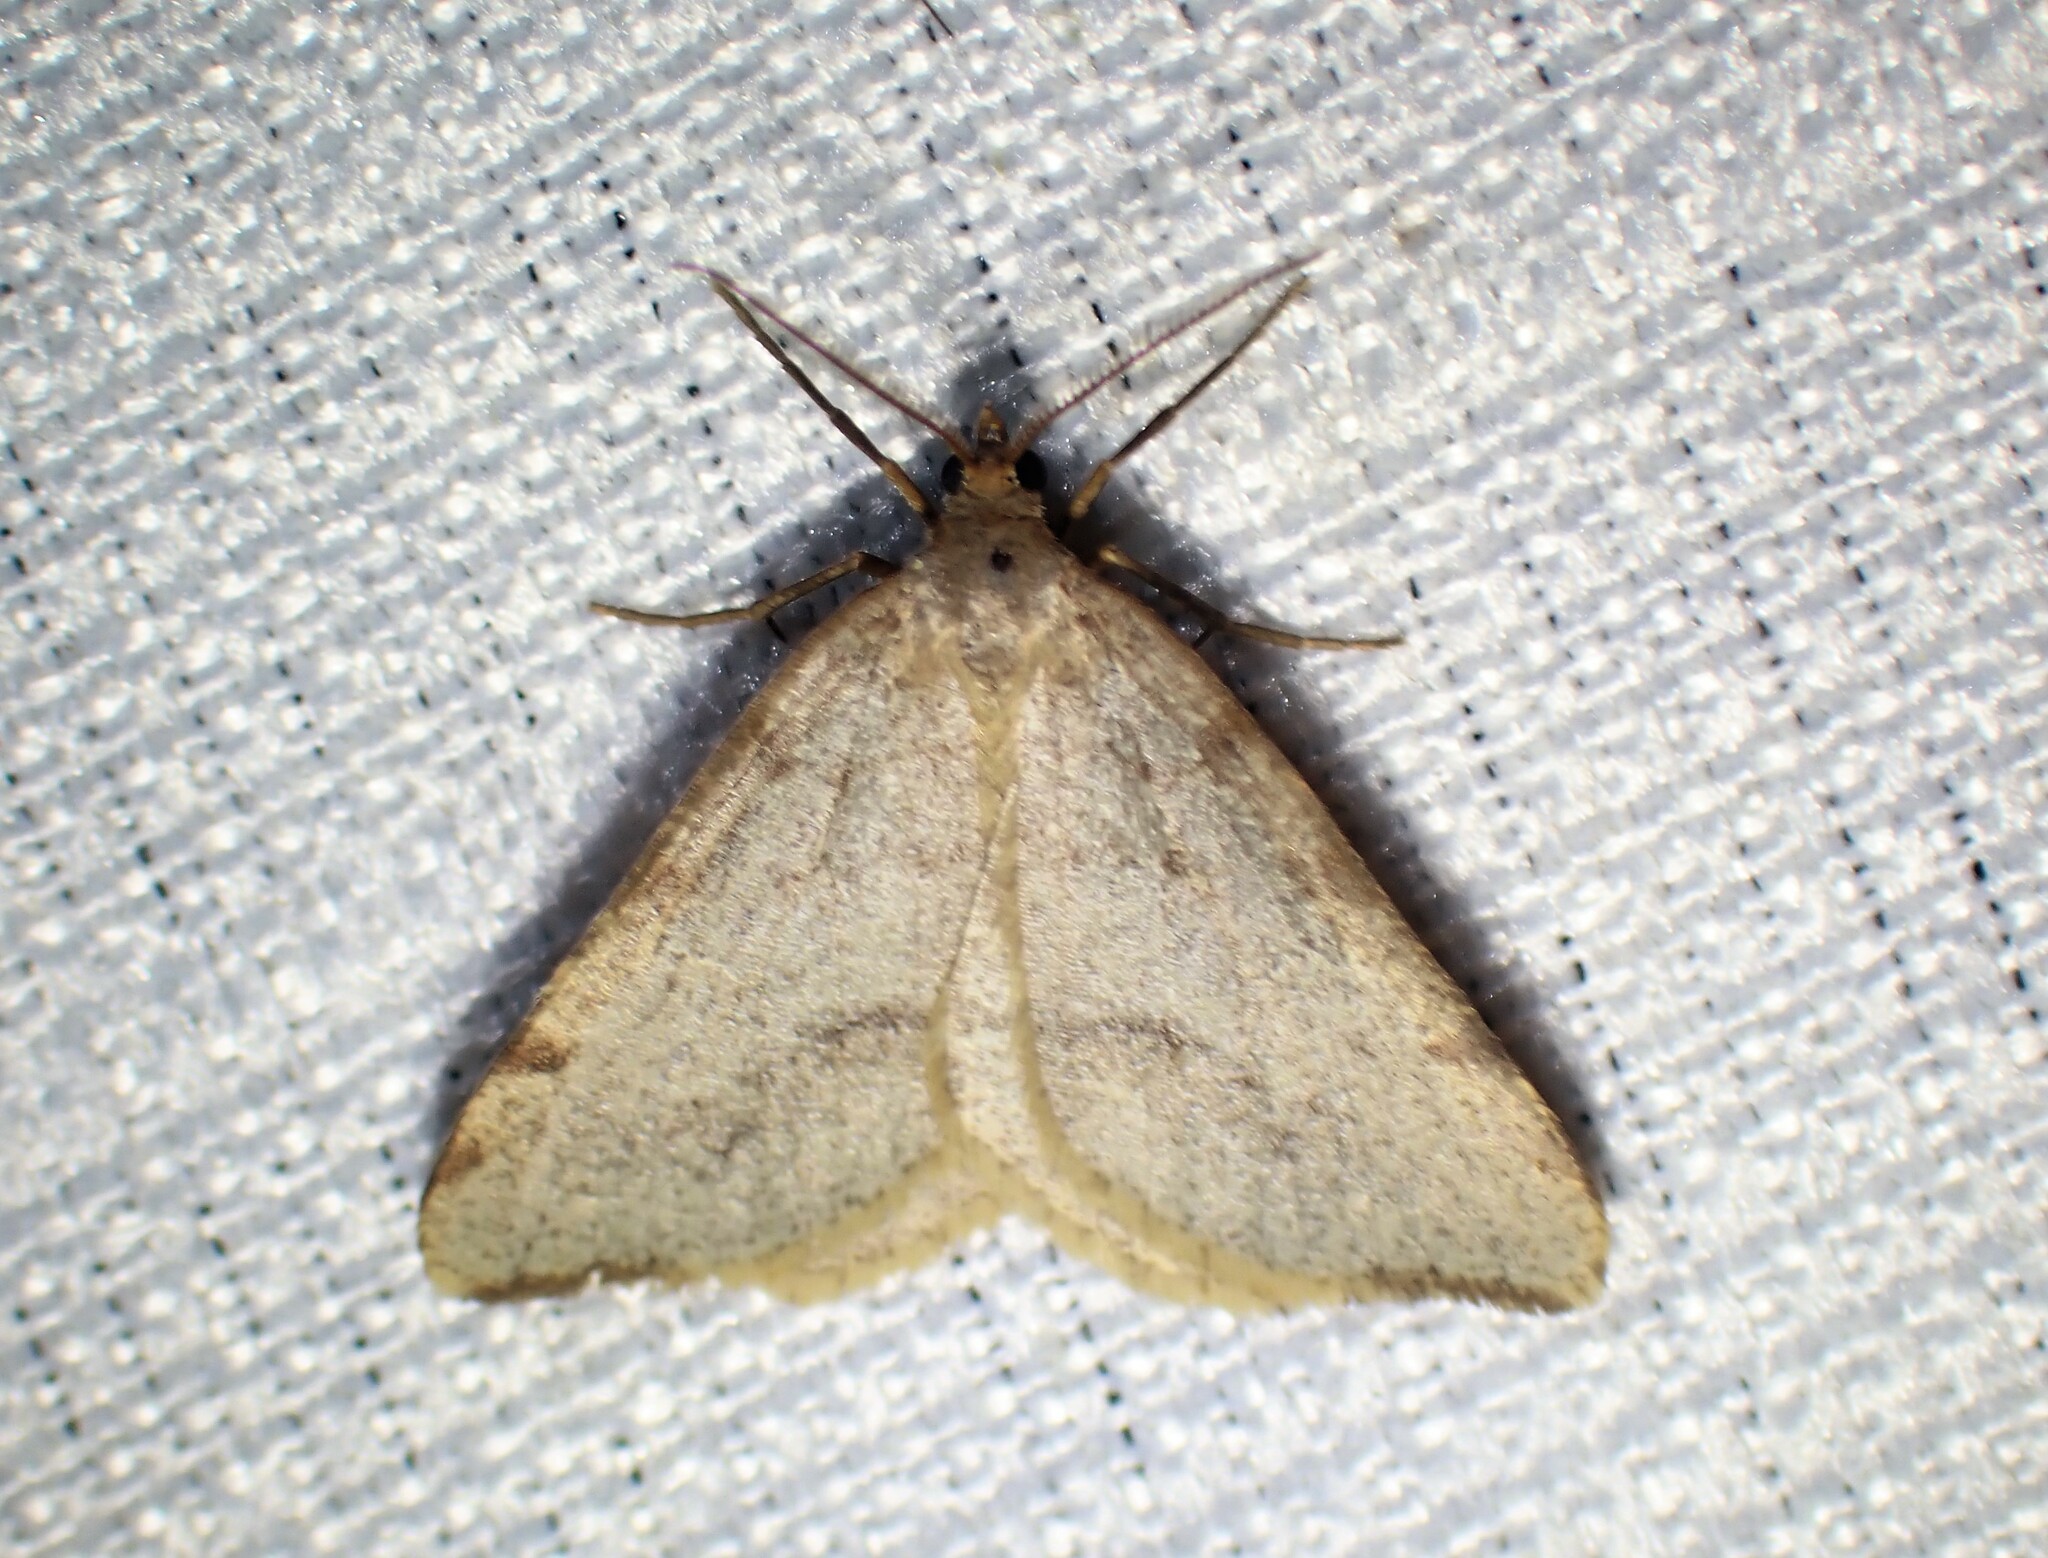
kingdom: Animalia
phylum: Arthropoda
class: Insecta
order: Lepidoptera
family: Geometridae
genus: Macaria
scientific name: Macaria evagaria
